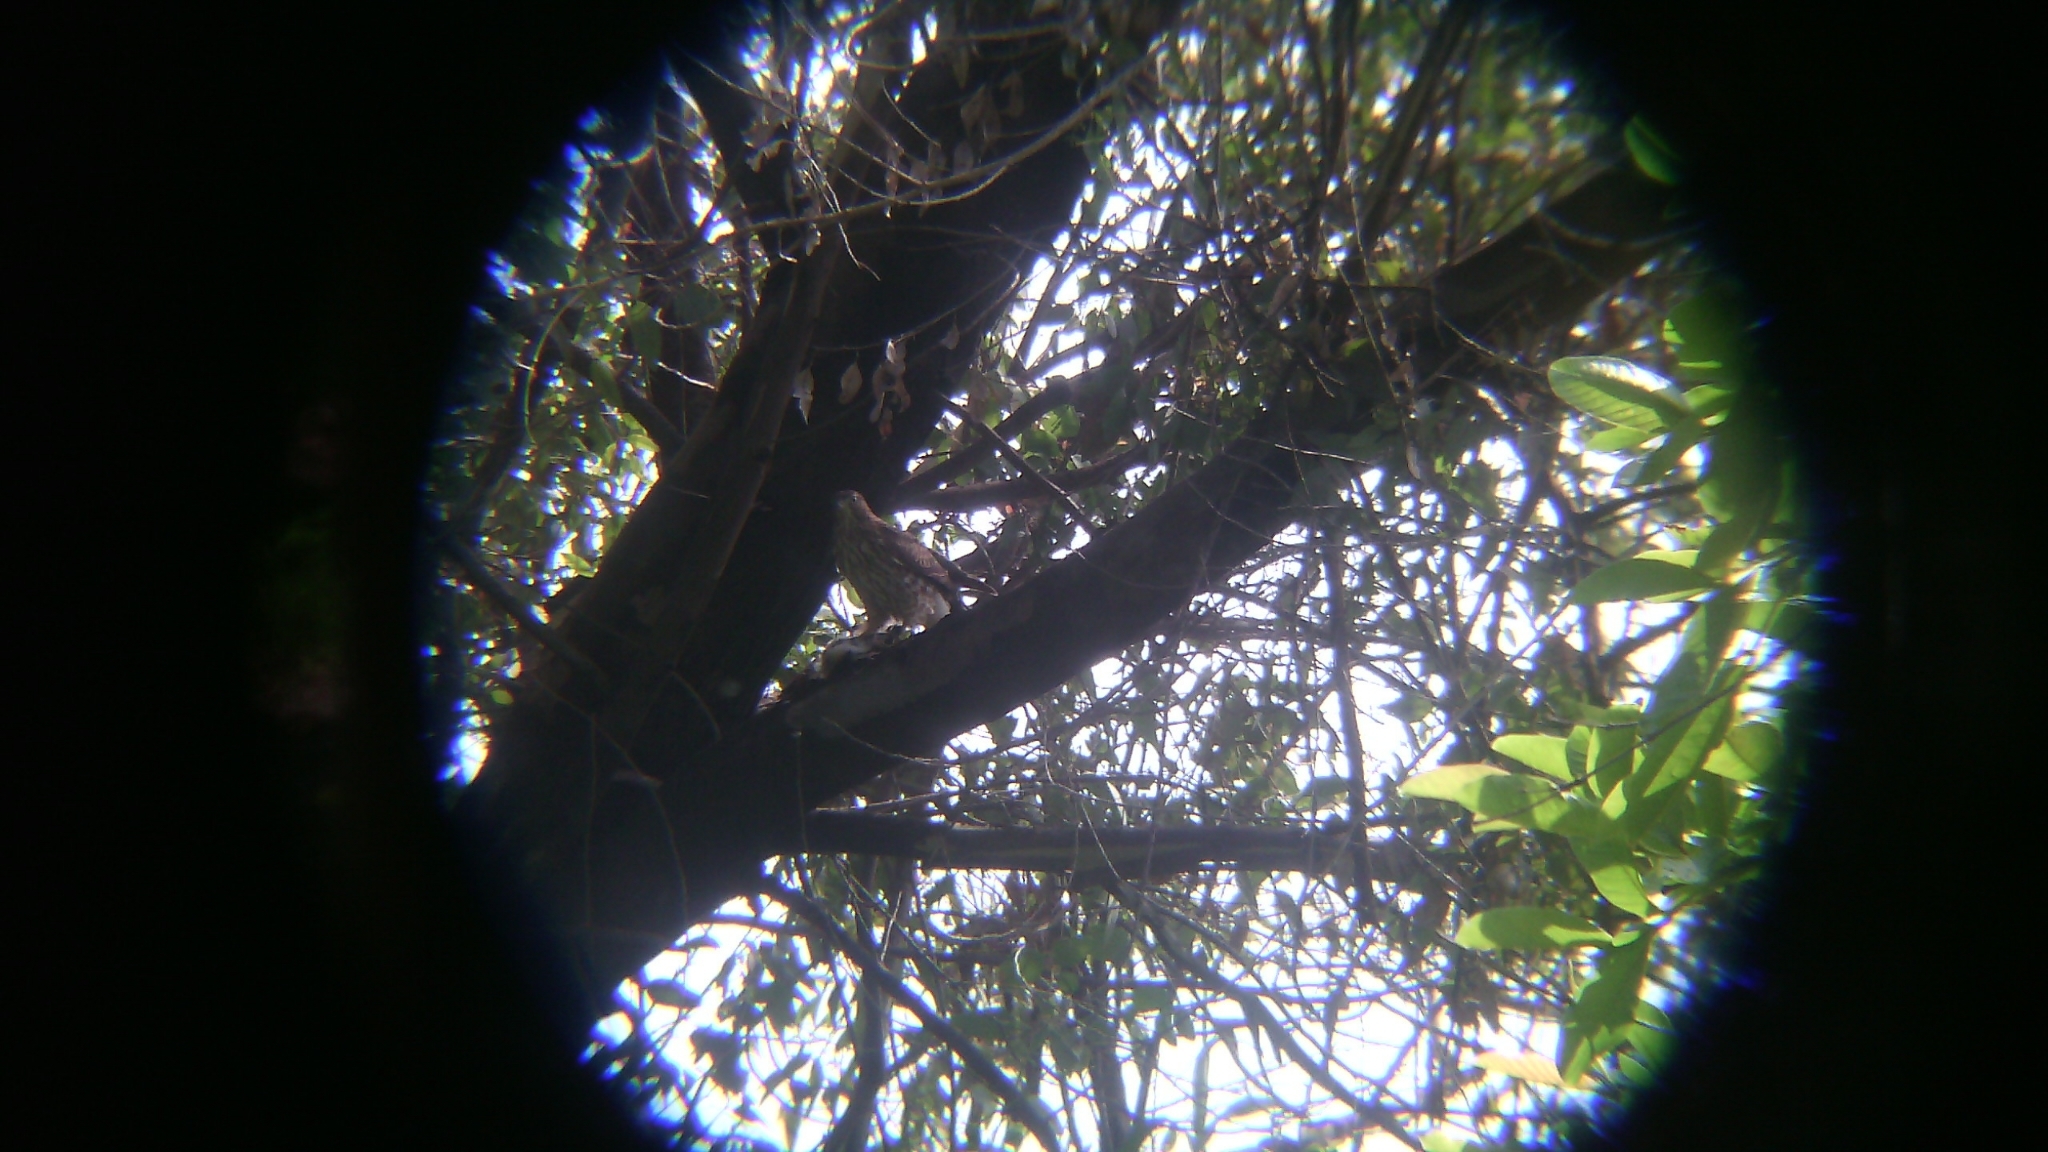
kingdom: Animalia
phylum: Chordata
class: Aves
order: Accipitriformes
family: Accipitridae
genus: Accipiter
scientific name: Accipiter cooperii
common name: Cooper's hawk
